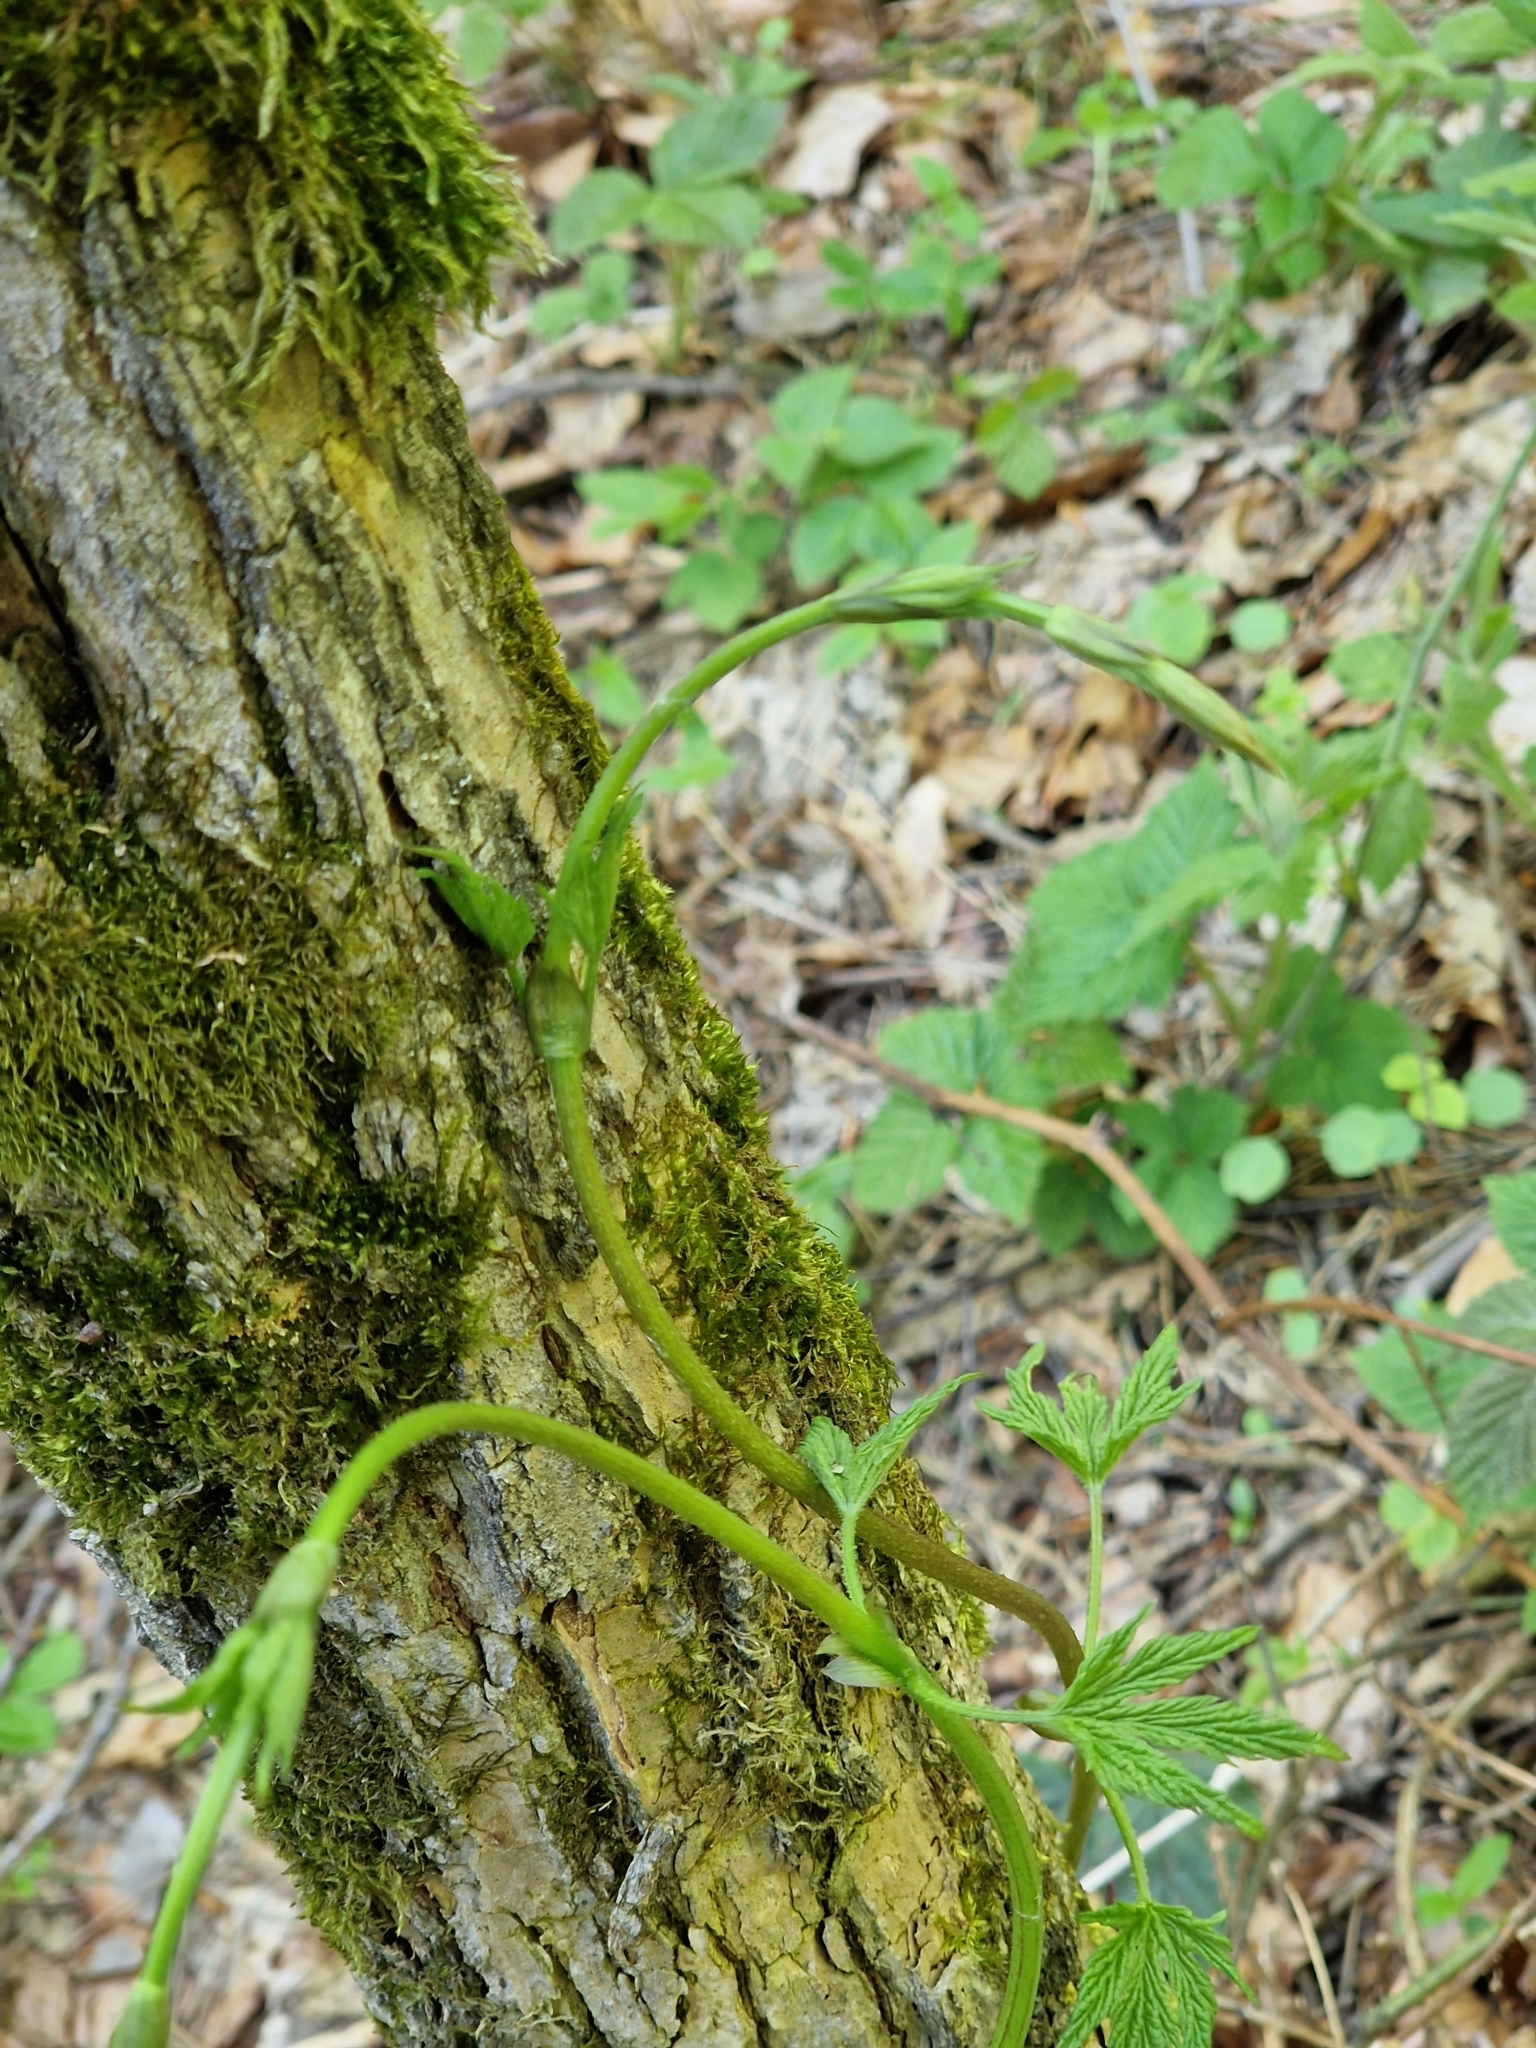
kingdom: Plantae
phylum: Tracheophyta
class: Magnoliopsida
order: Rosales
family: Cannabaceae
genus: Humulus
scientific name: Humulus lupulus
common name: Hop
